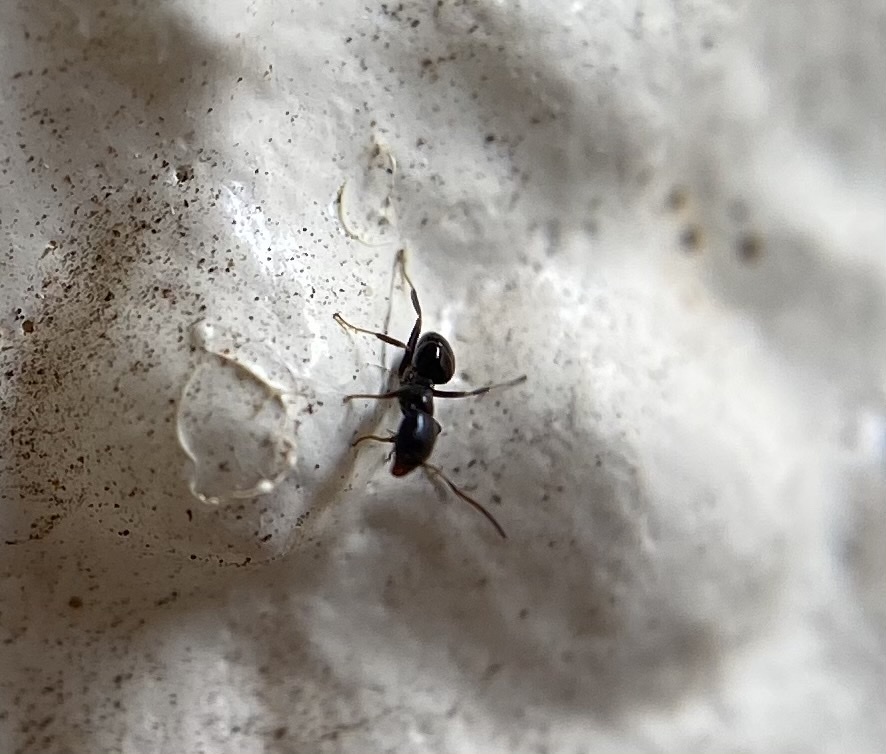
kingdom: Animalia
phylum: Arthropoda
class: Insecta
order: Hymenoptera
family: Formicidae
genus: Ochetellus
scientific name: Ochetellus glaber
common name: Ant
